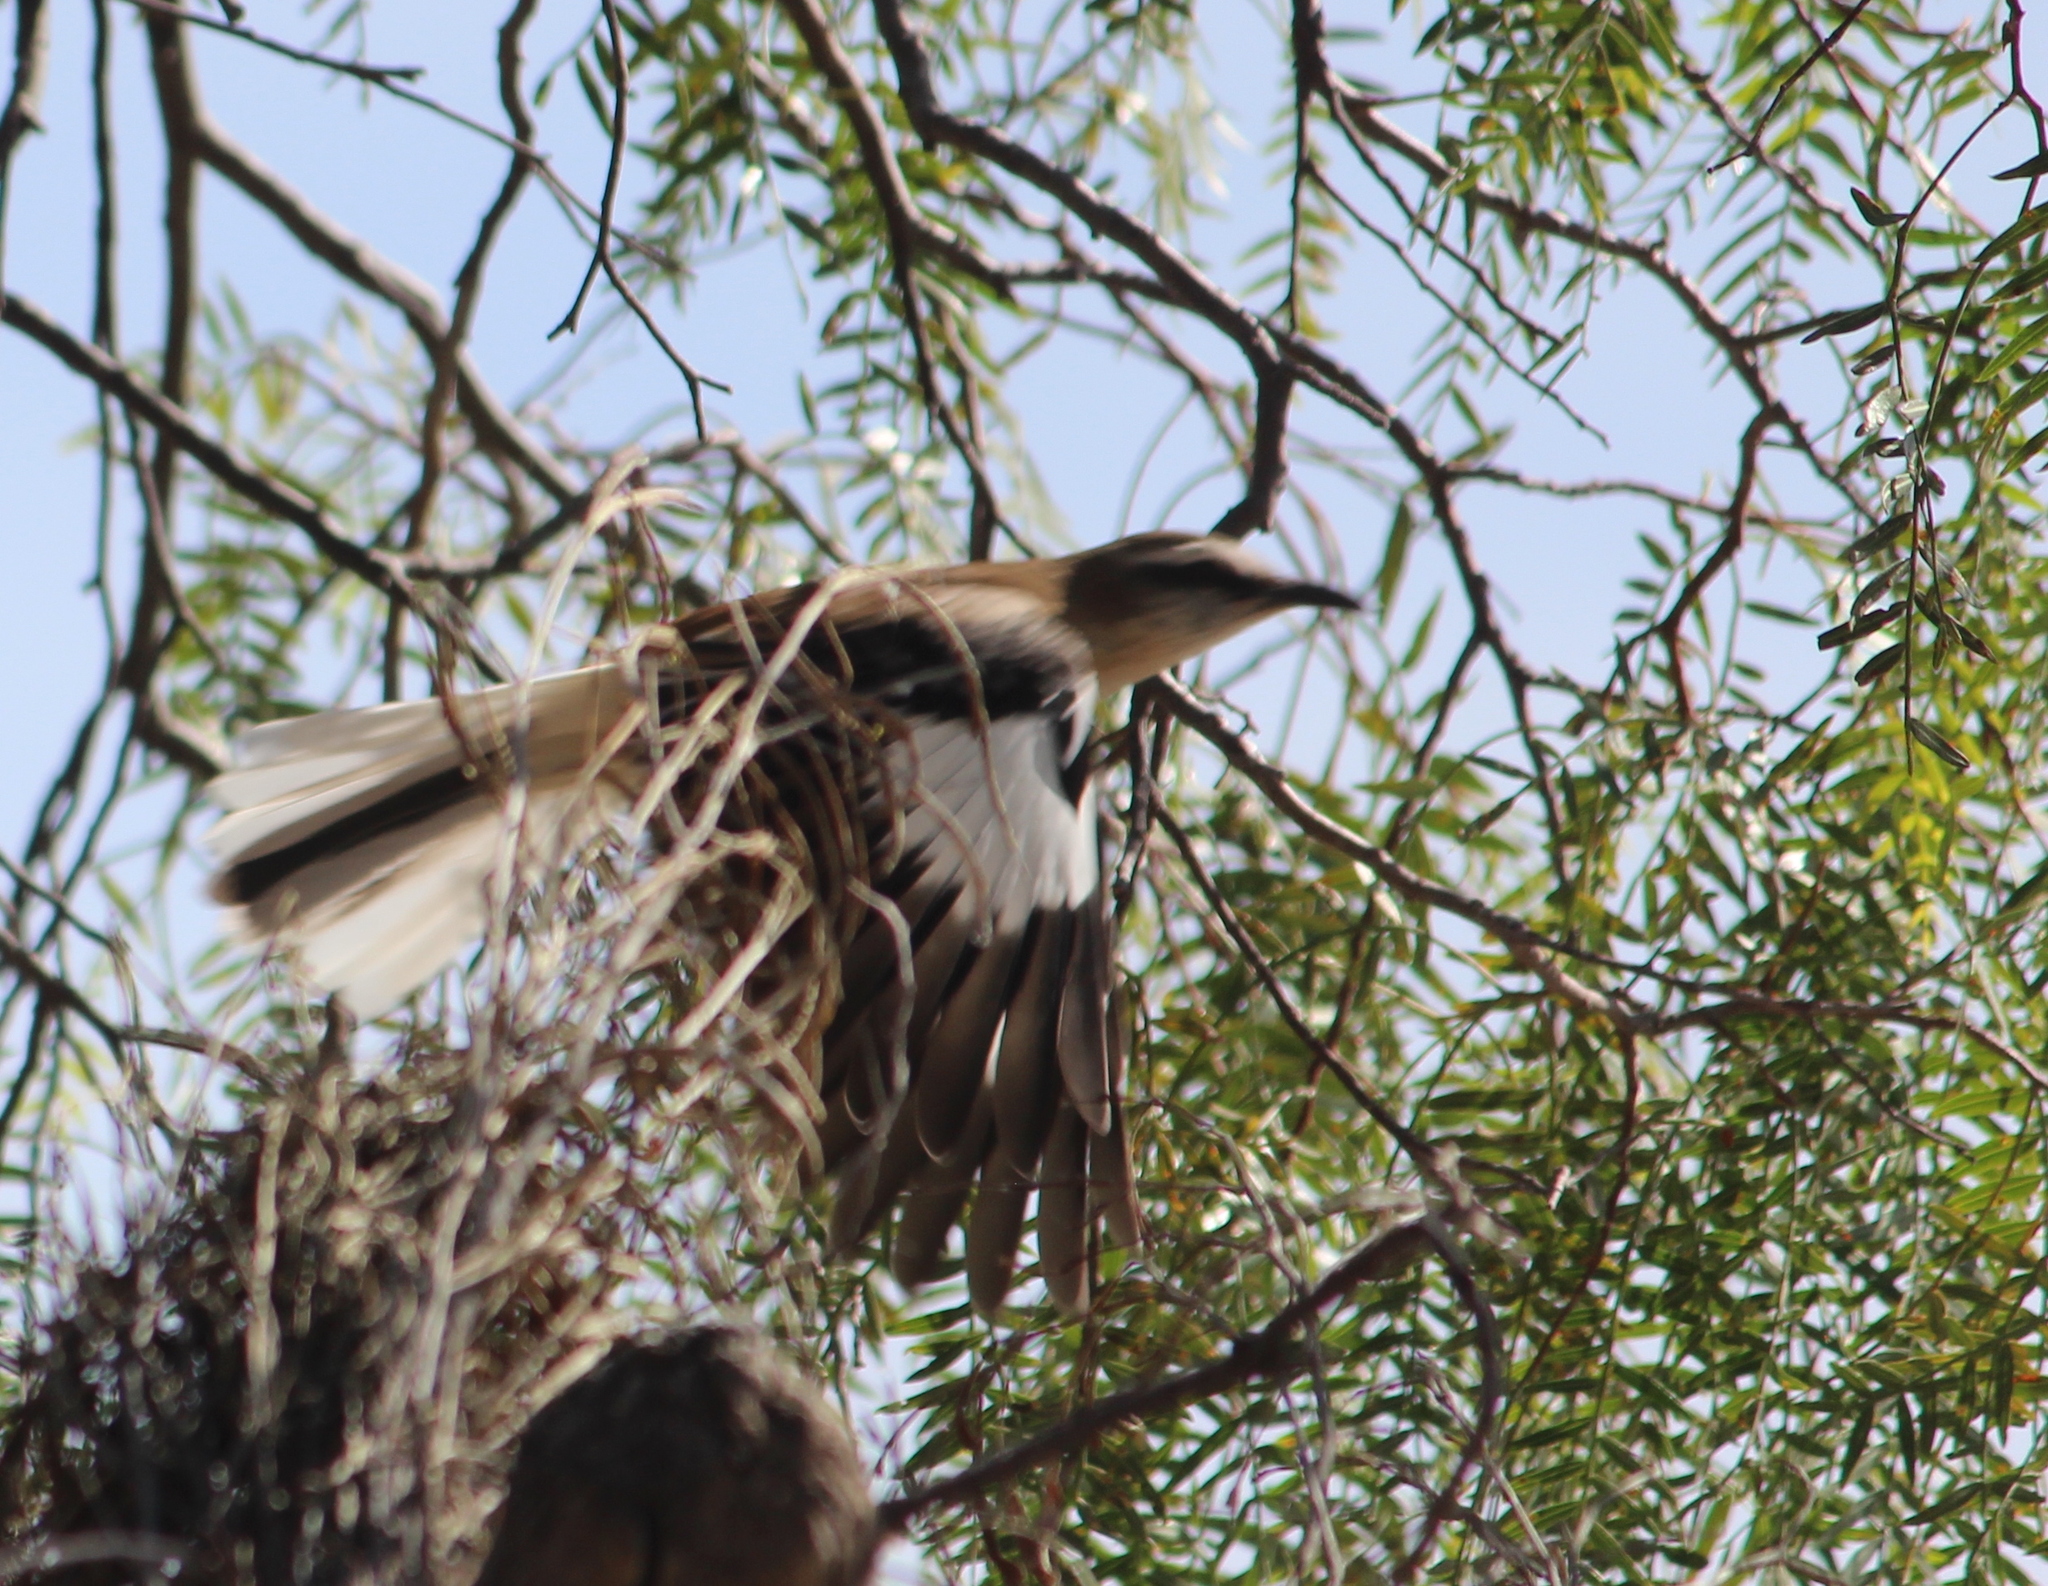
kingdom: Animalia
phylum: Chordata
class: Aves
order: Passeriformes
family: Mimidae
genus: Mimus
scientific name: Mimus dorsalis
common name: Brown-backed mockingbird
